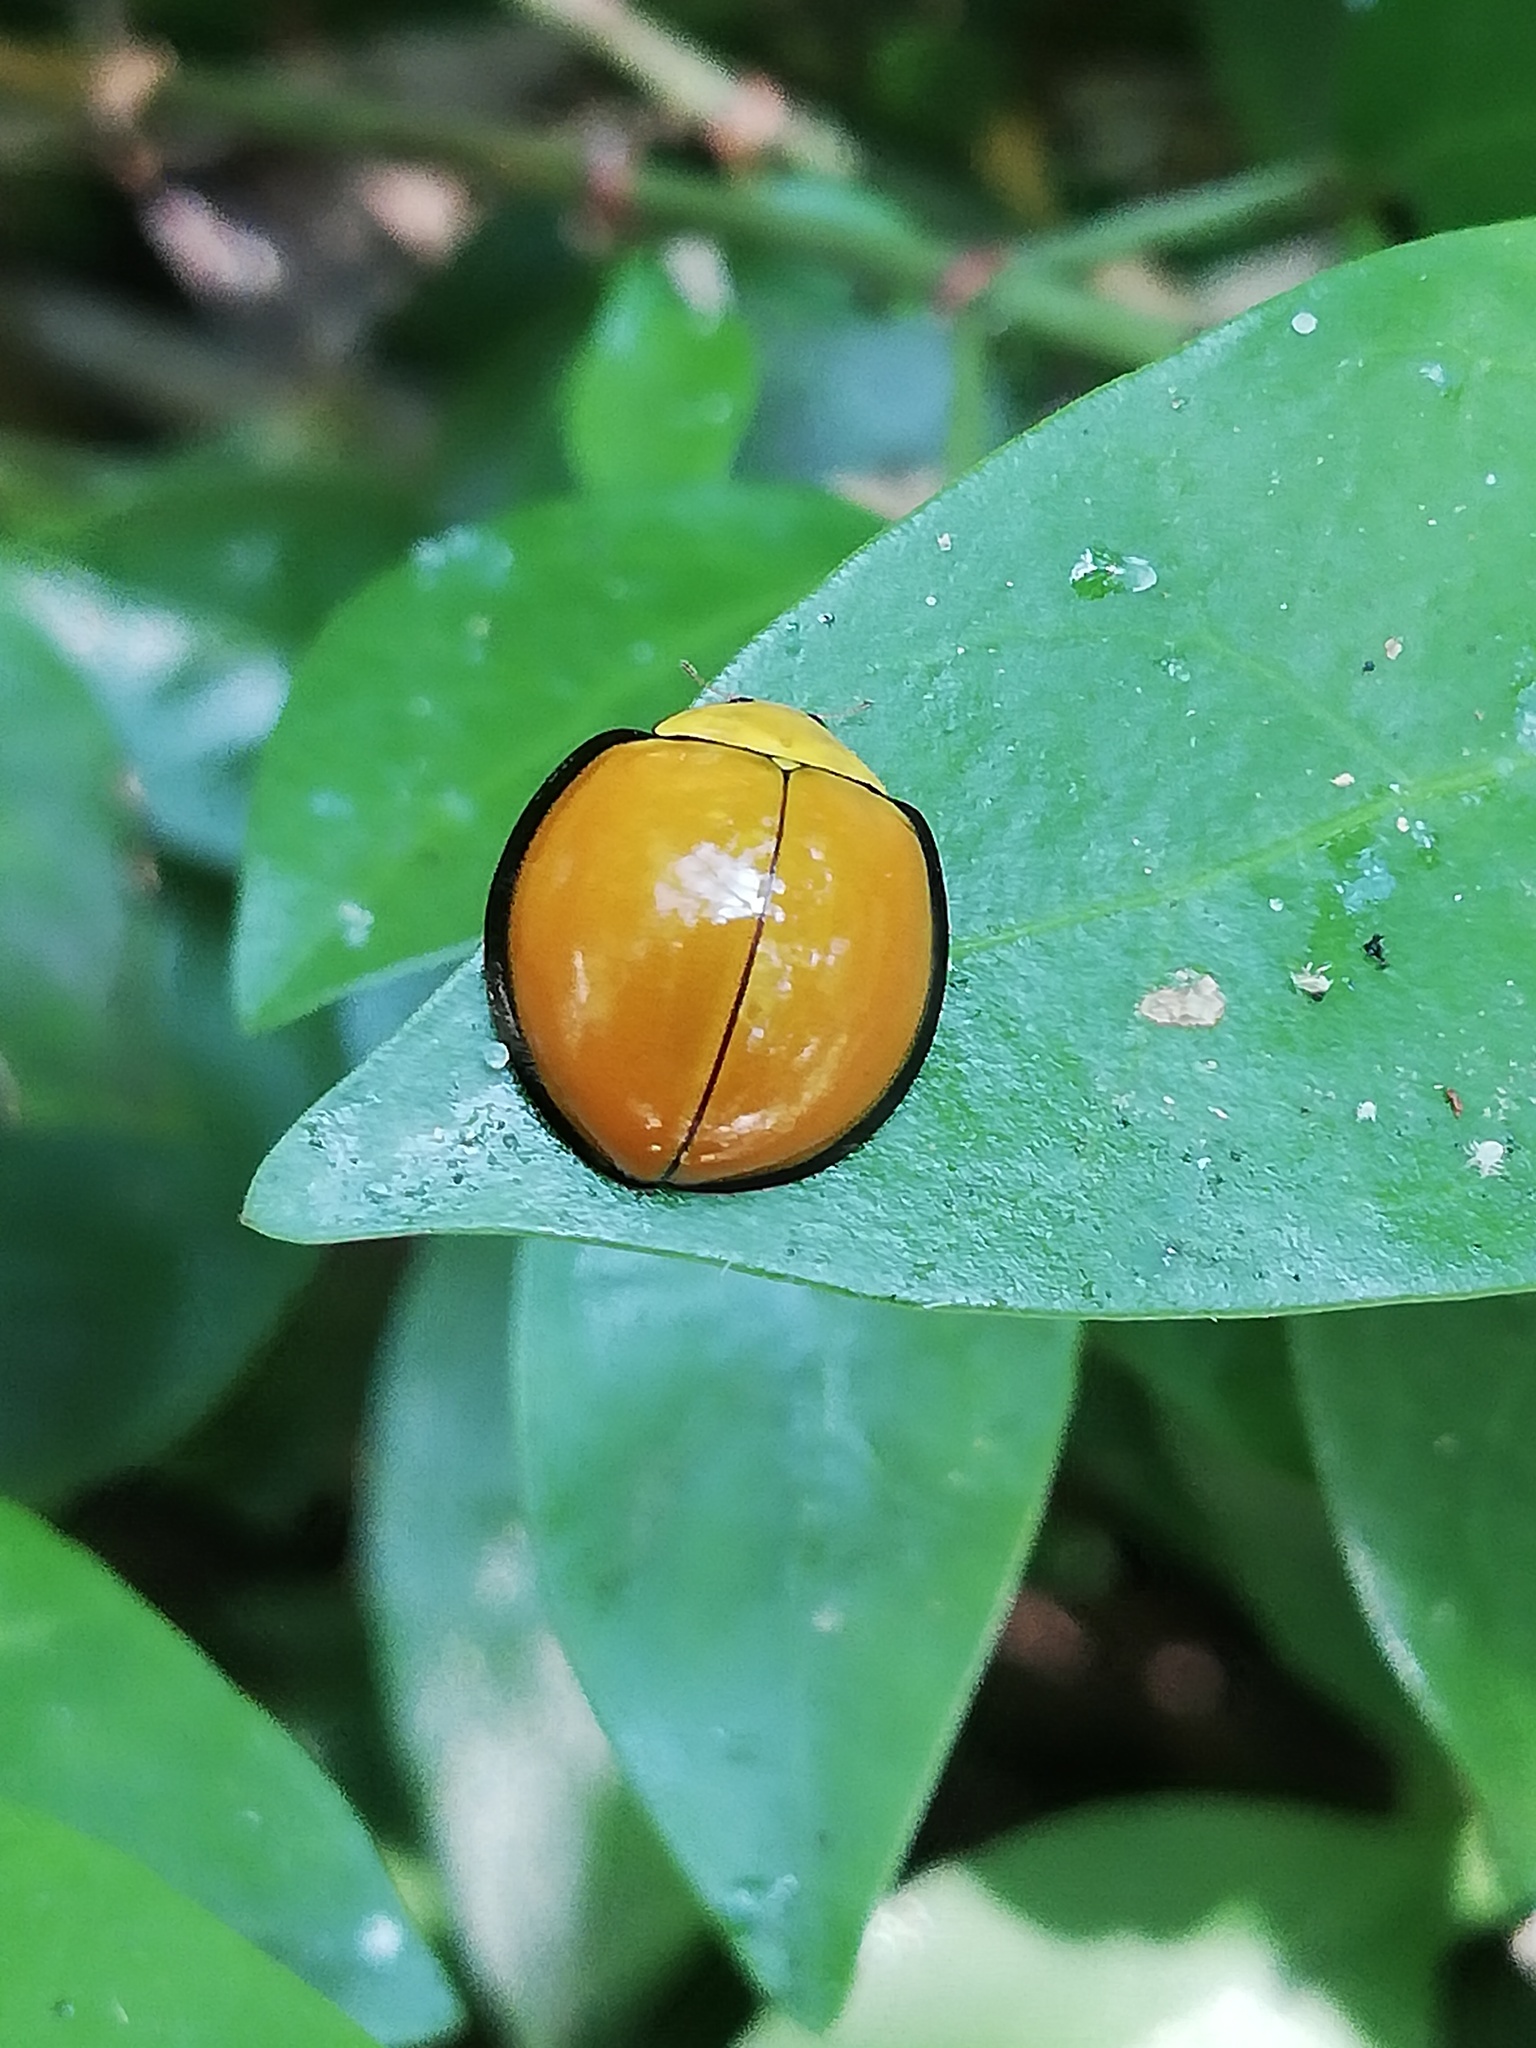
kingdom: Animalia
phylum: Arthropoda
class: Insecta
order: Coleoptera
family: Coccinellidae
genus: Neda
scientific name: Neda
